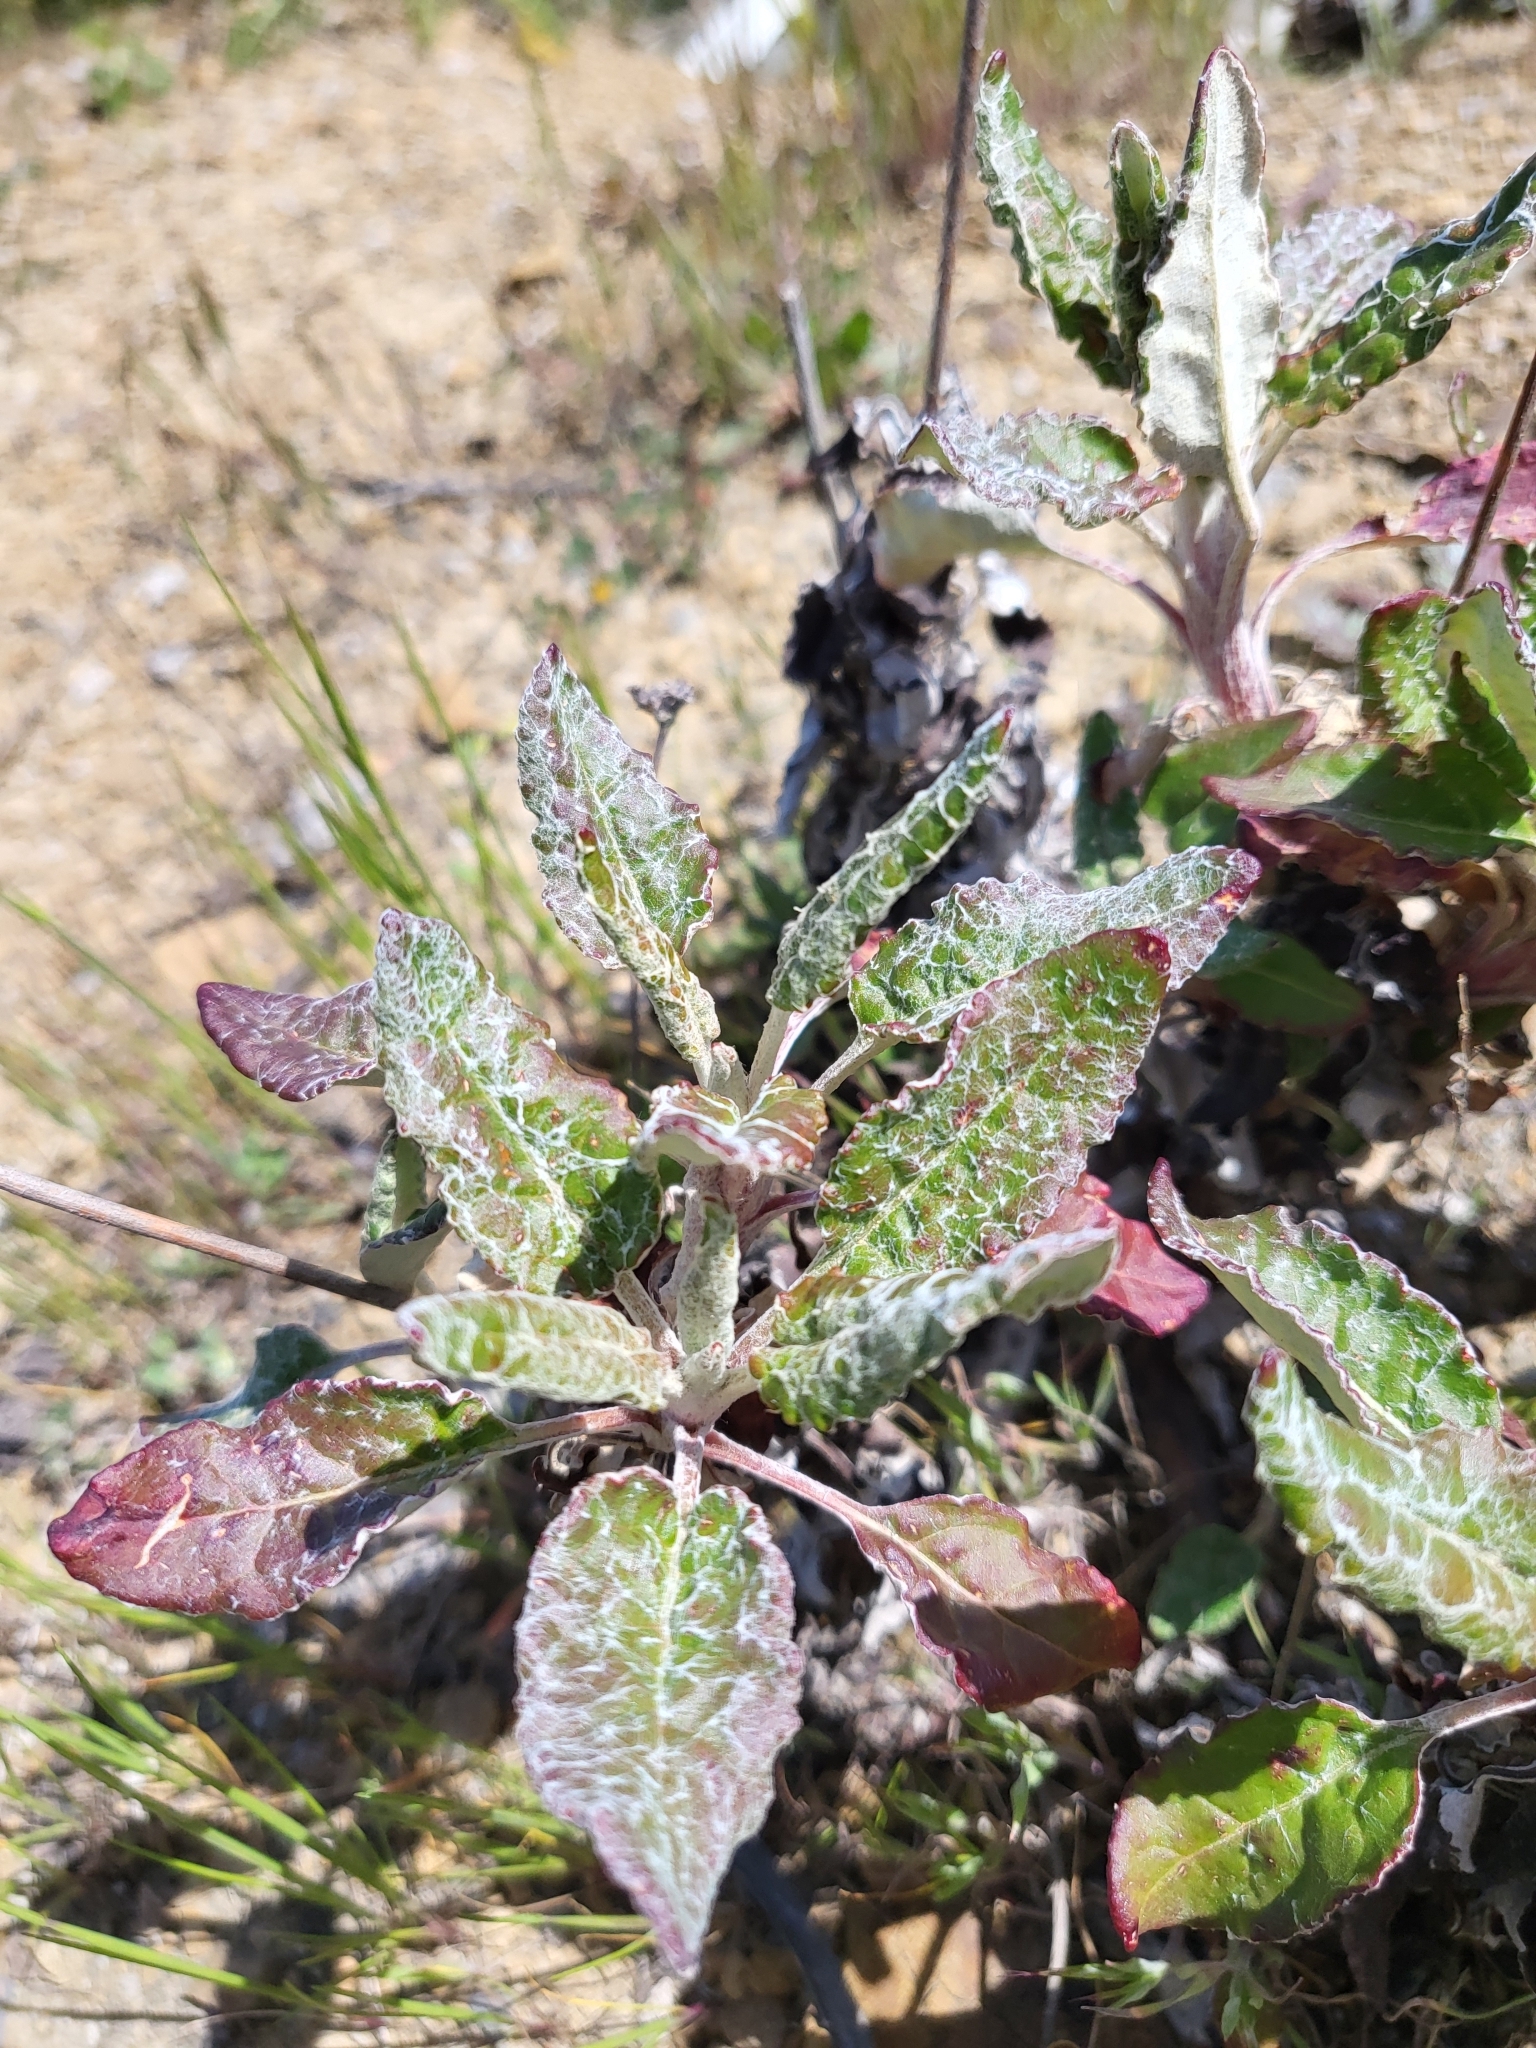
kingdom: Plantae
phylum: Tracheophyta
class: Magnoliopsida
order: Caryophyllales
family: Polygonaceae
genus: Eriogonum
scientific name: Eriogonum latifolium
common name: Seaside wild buckwheat
